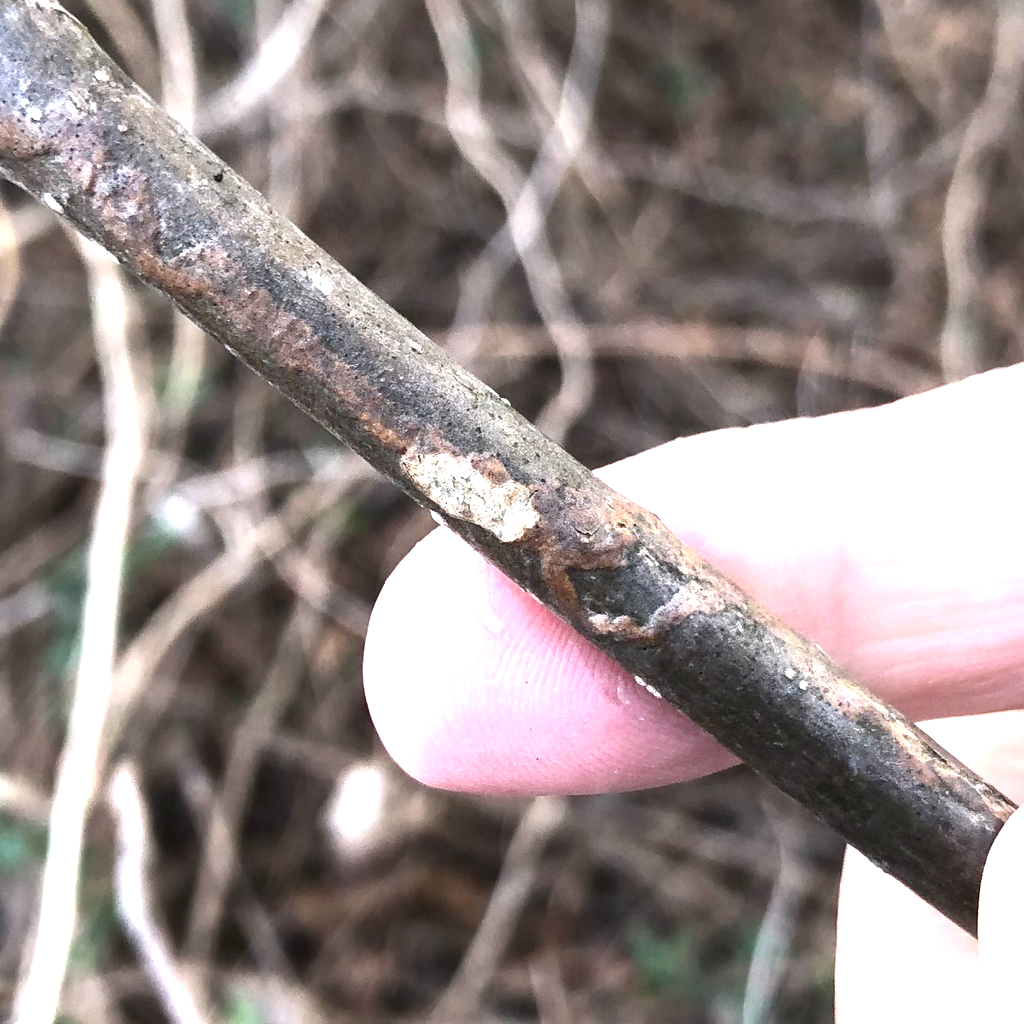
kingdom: Animalia
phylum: Arthropoda
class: Insecta
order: Lepidoptera
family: Gracillariidae
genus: Marmara
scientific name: Marmara fraxinicola
